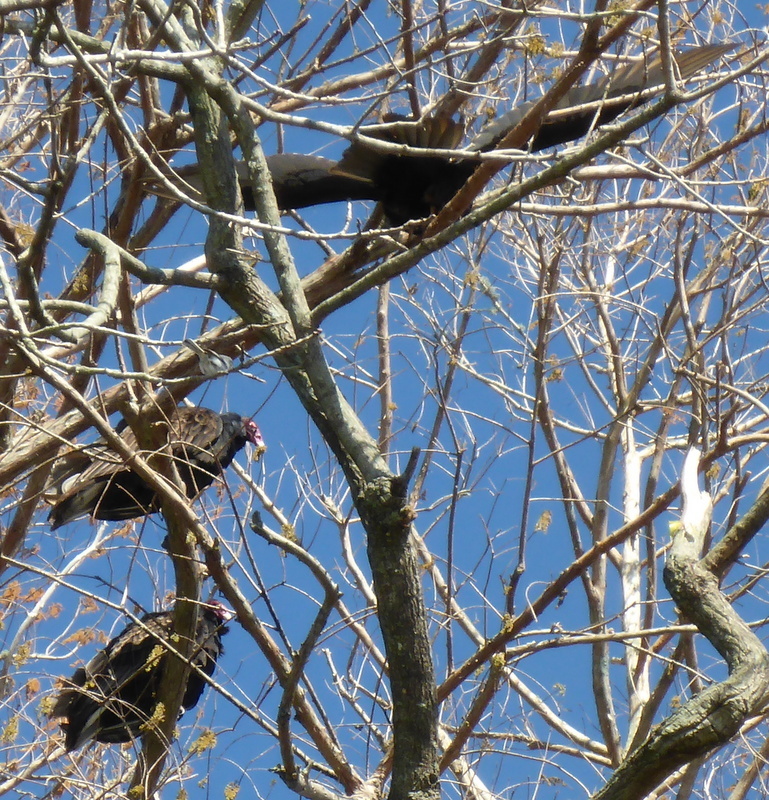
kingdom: Animalia
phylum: Chordata
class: Aves
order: Accipitriformes
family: Cathartidae
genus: Cathartes
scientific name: Cathartes aura
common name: Turkey vulture
